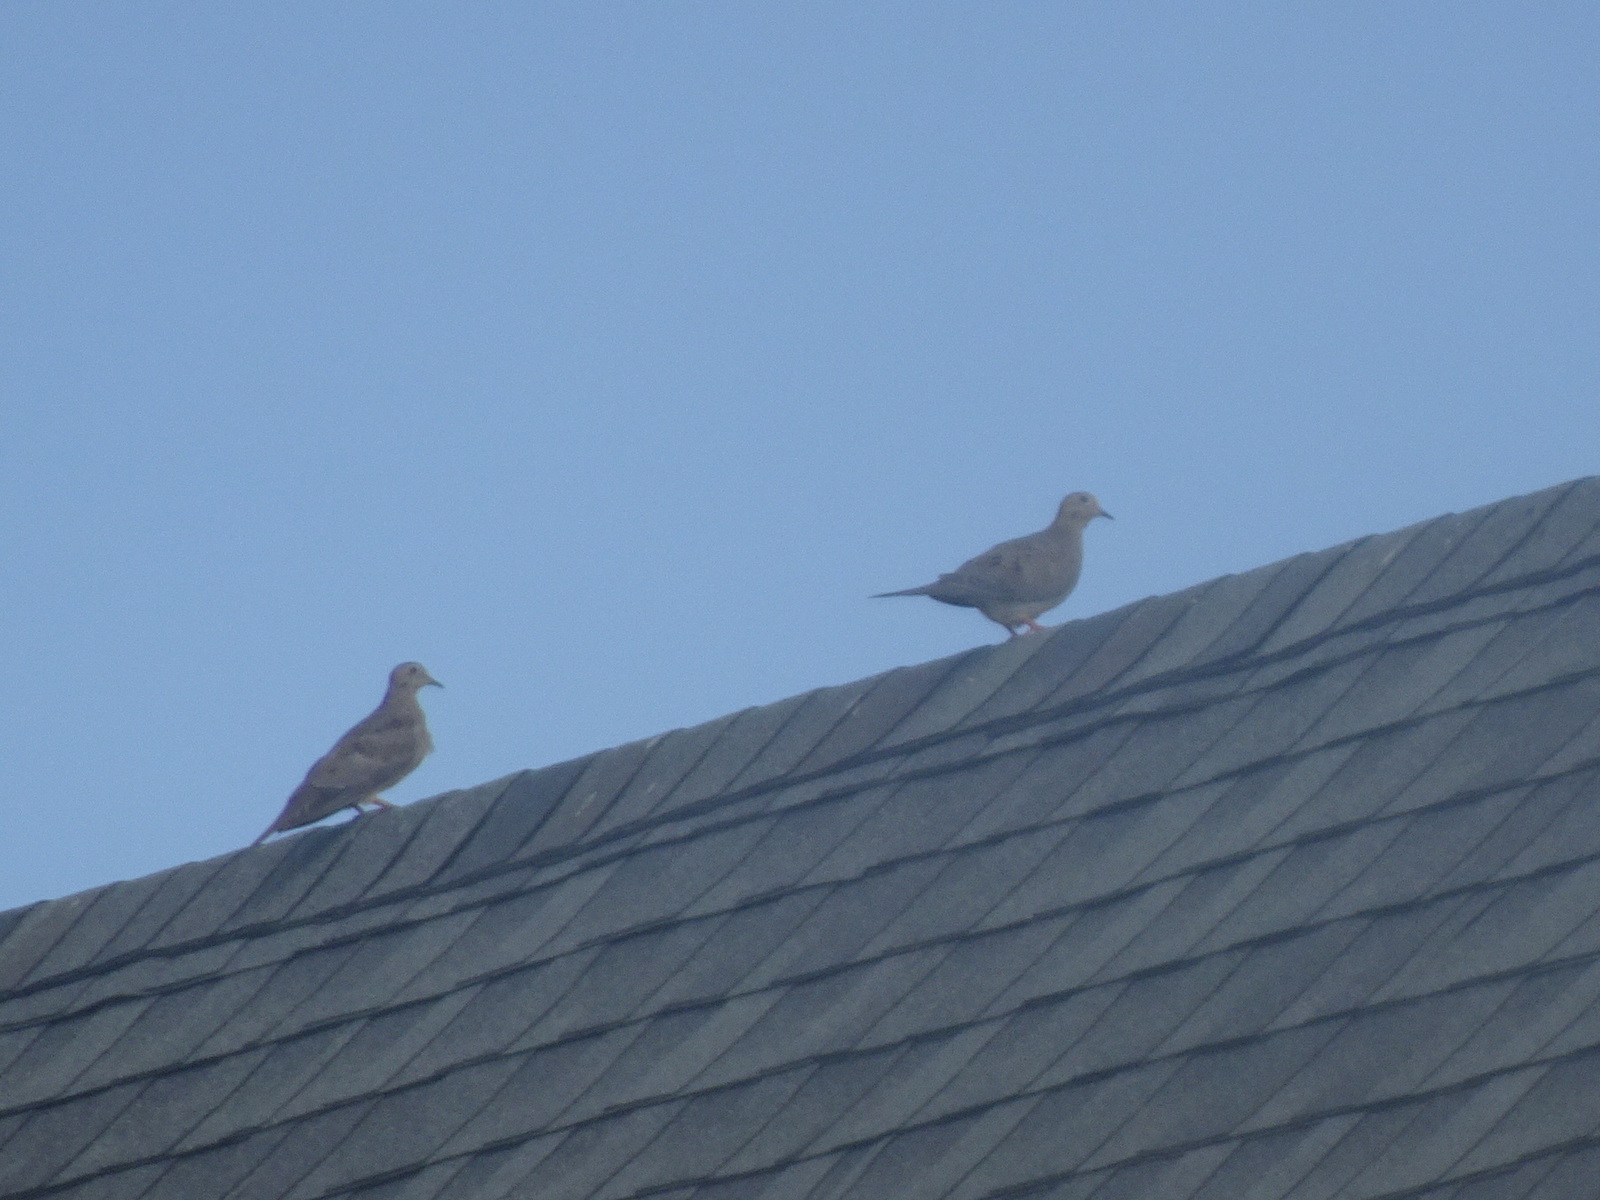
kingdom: Animalia
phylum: Chordata
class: Aves
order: Columbiformes
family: Columbidae
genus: Zenaida
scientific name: Zenaida macroura
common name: Mourning dove
